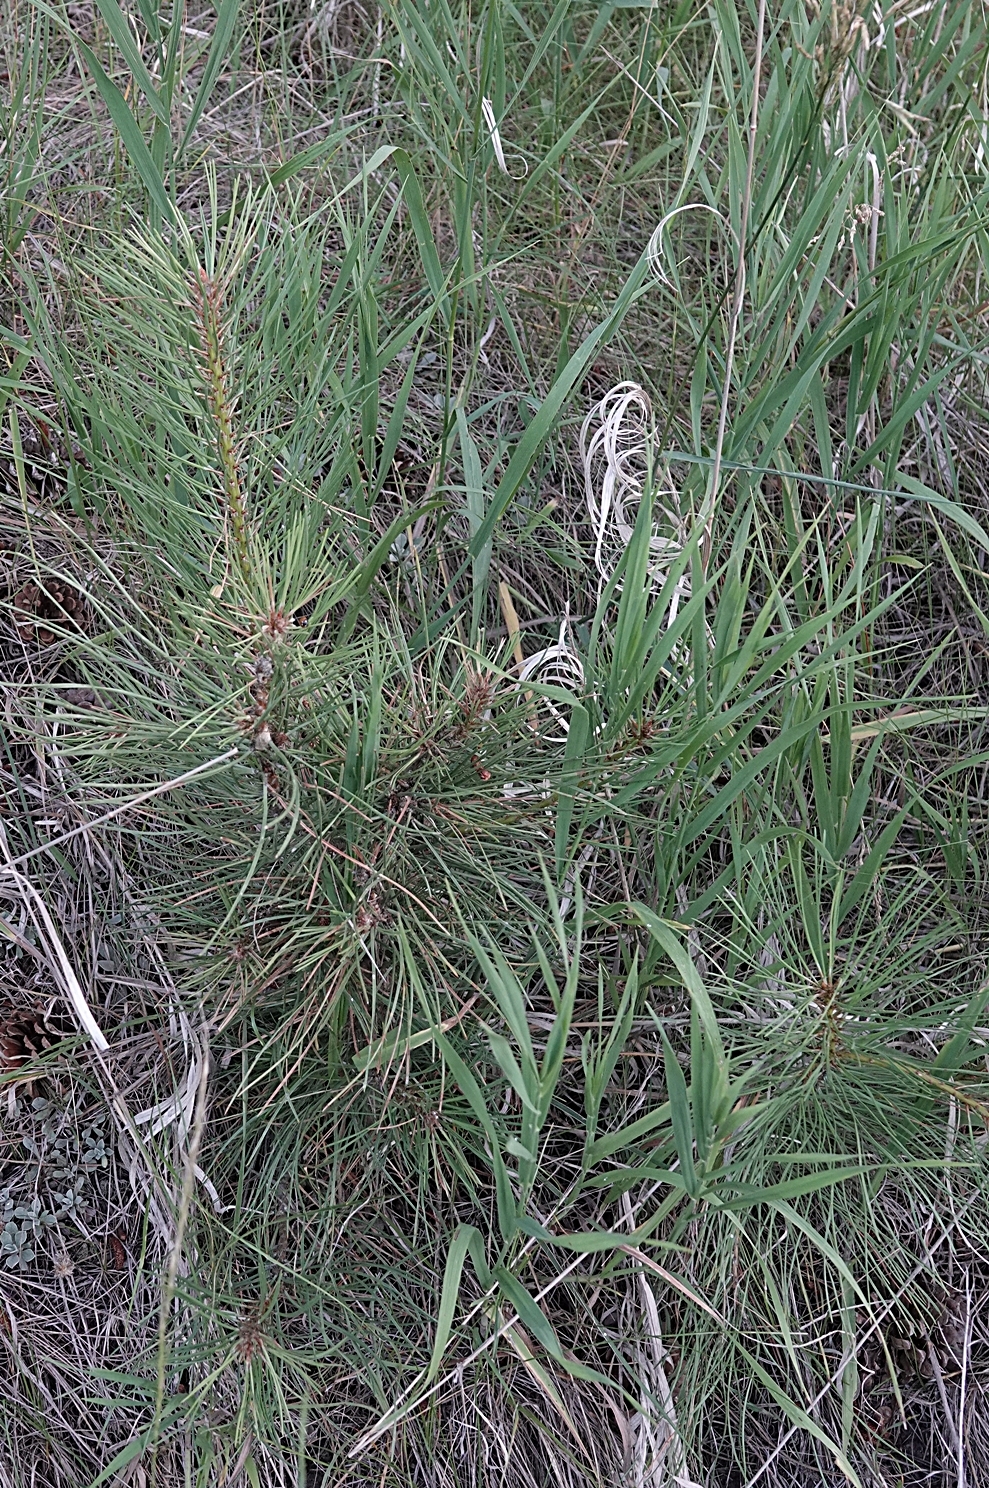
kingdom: Plantae
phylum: Tracheophyta
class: Pinopsida
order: Pinales
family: Pinaceae
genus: Pinus
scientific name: Pinus ponderosa
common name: Western yellow-pine
